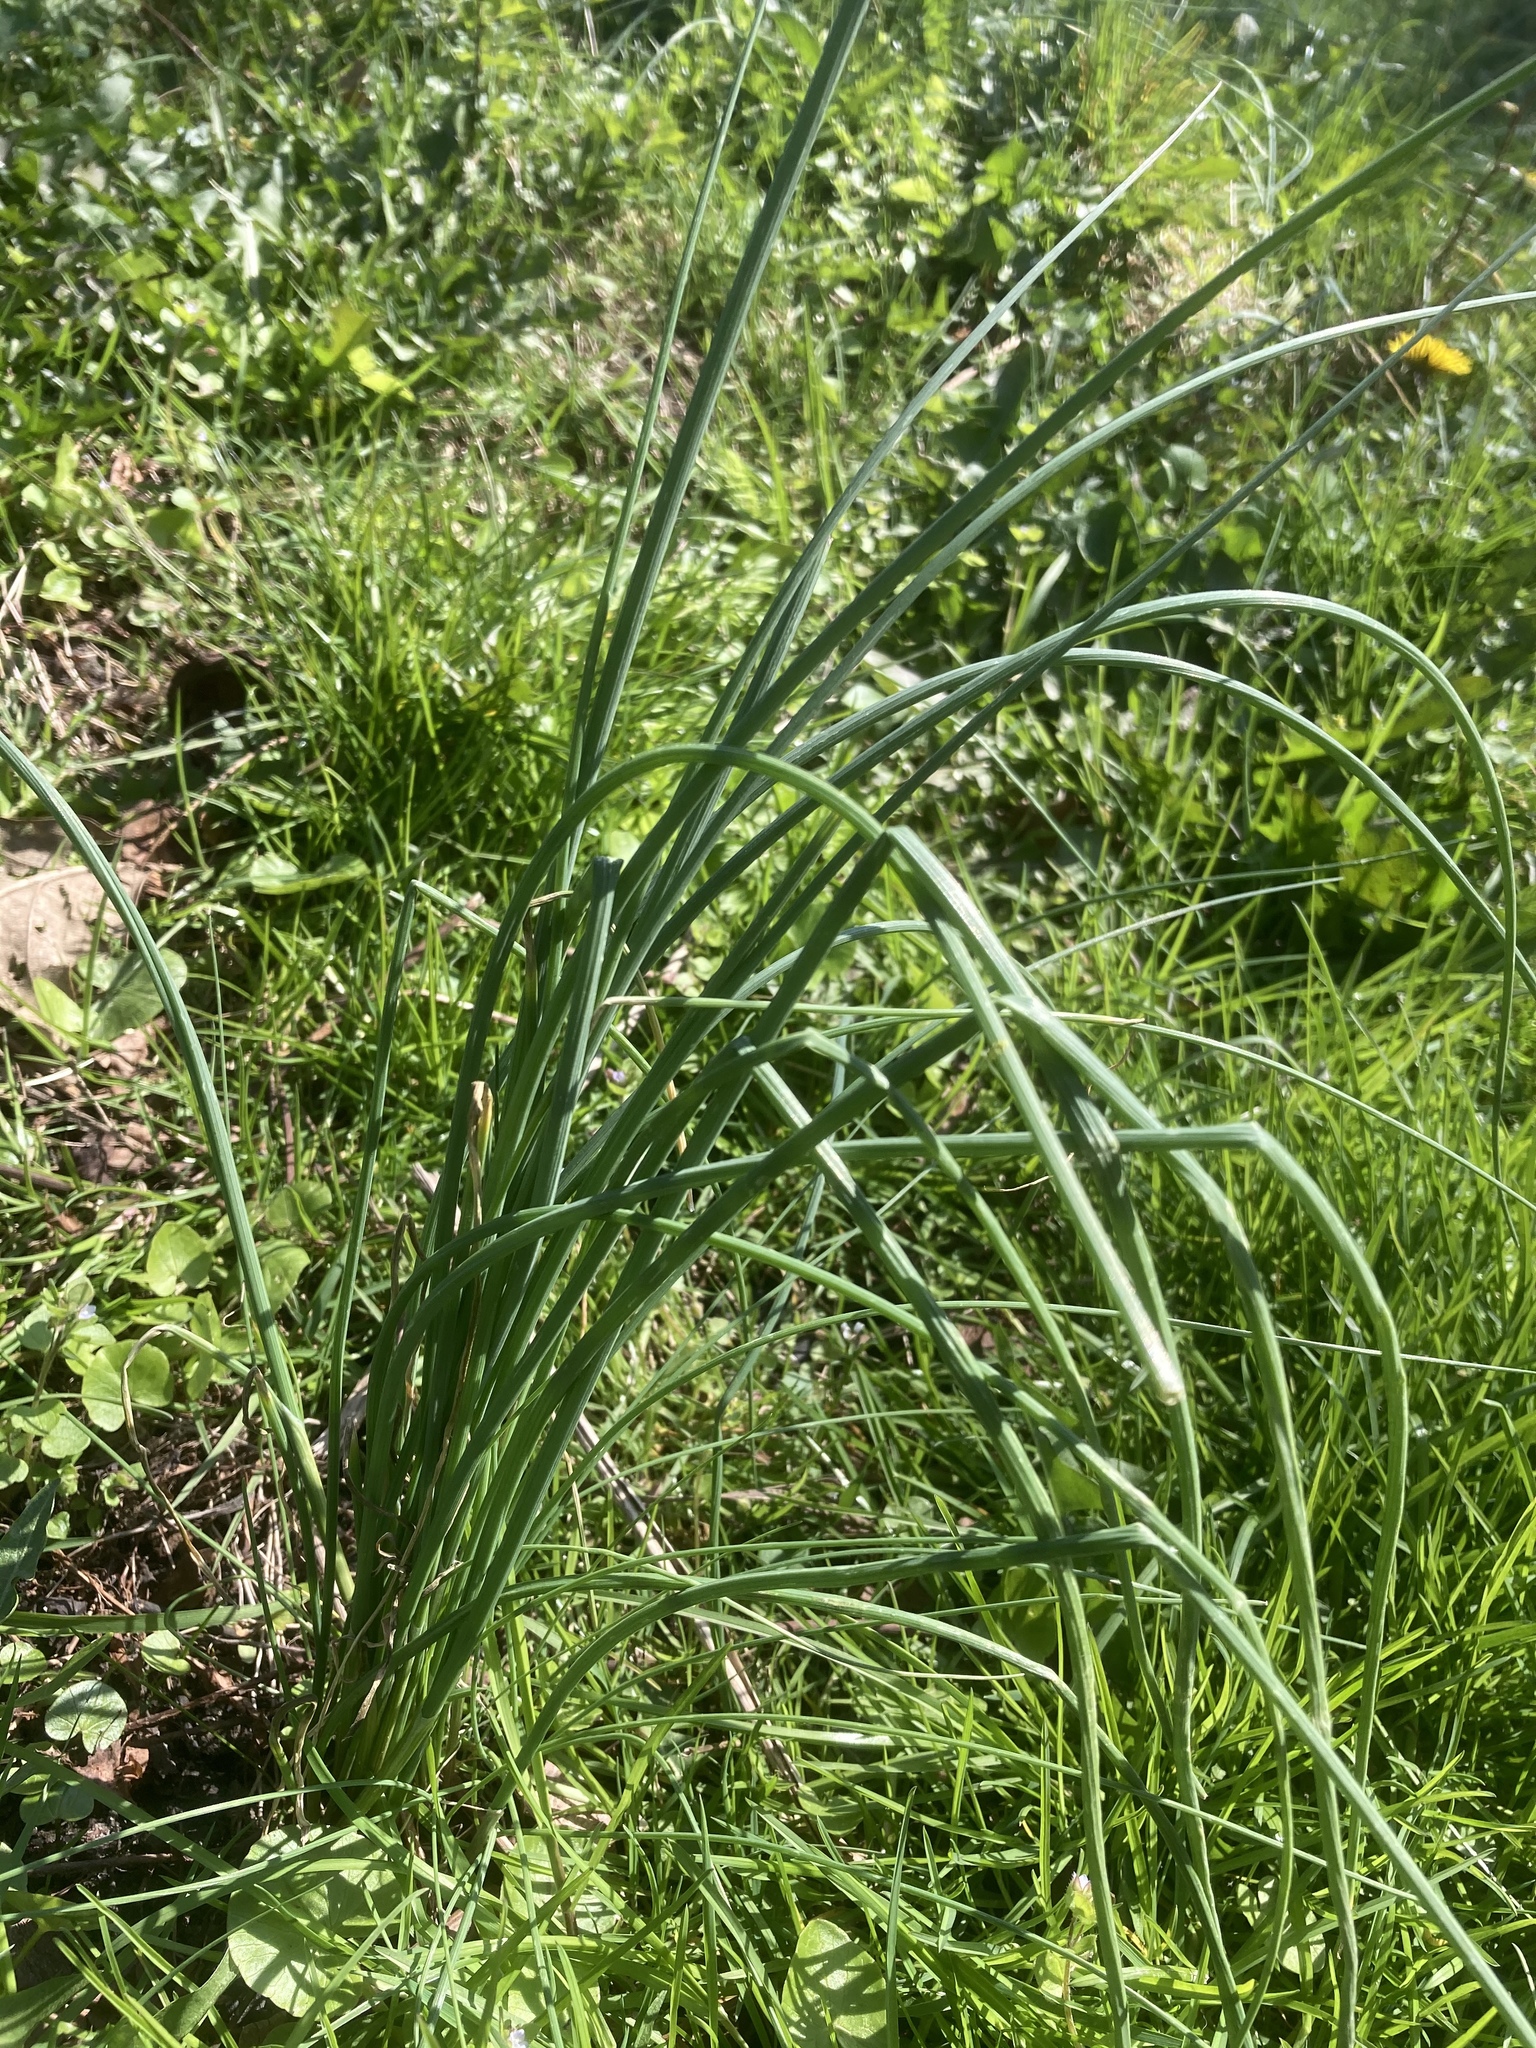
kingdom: Plantae
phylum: Tracheophyta
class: Liliopsida
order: Asparagales
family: Amaryllidaceae
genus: Allium
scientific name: Allium vineale
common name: Crow garlic
